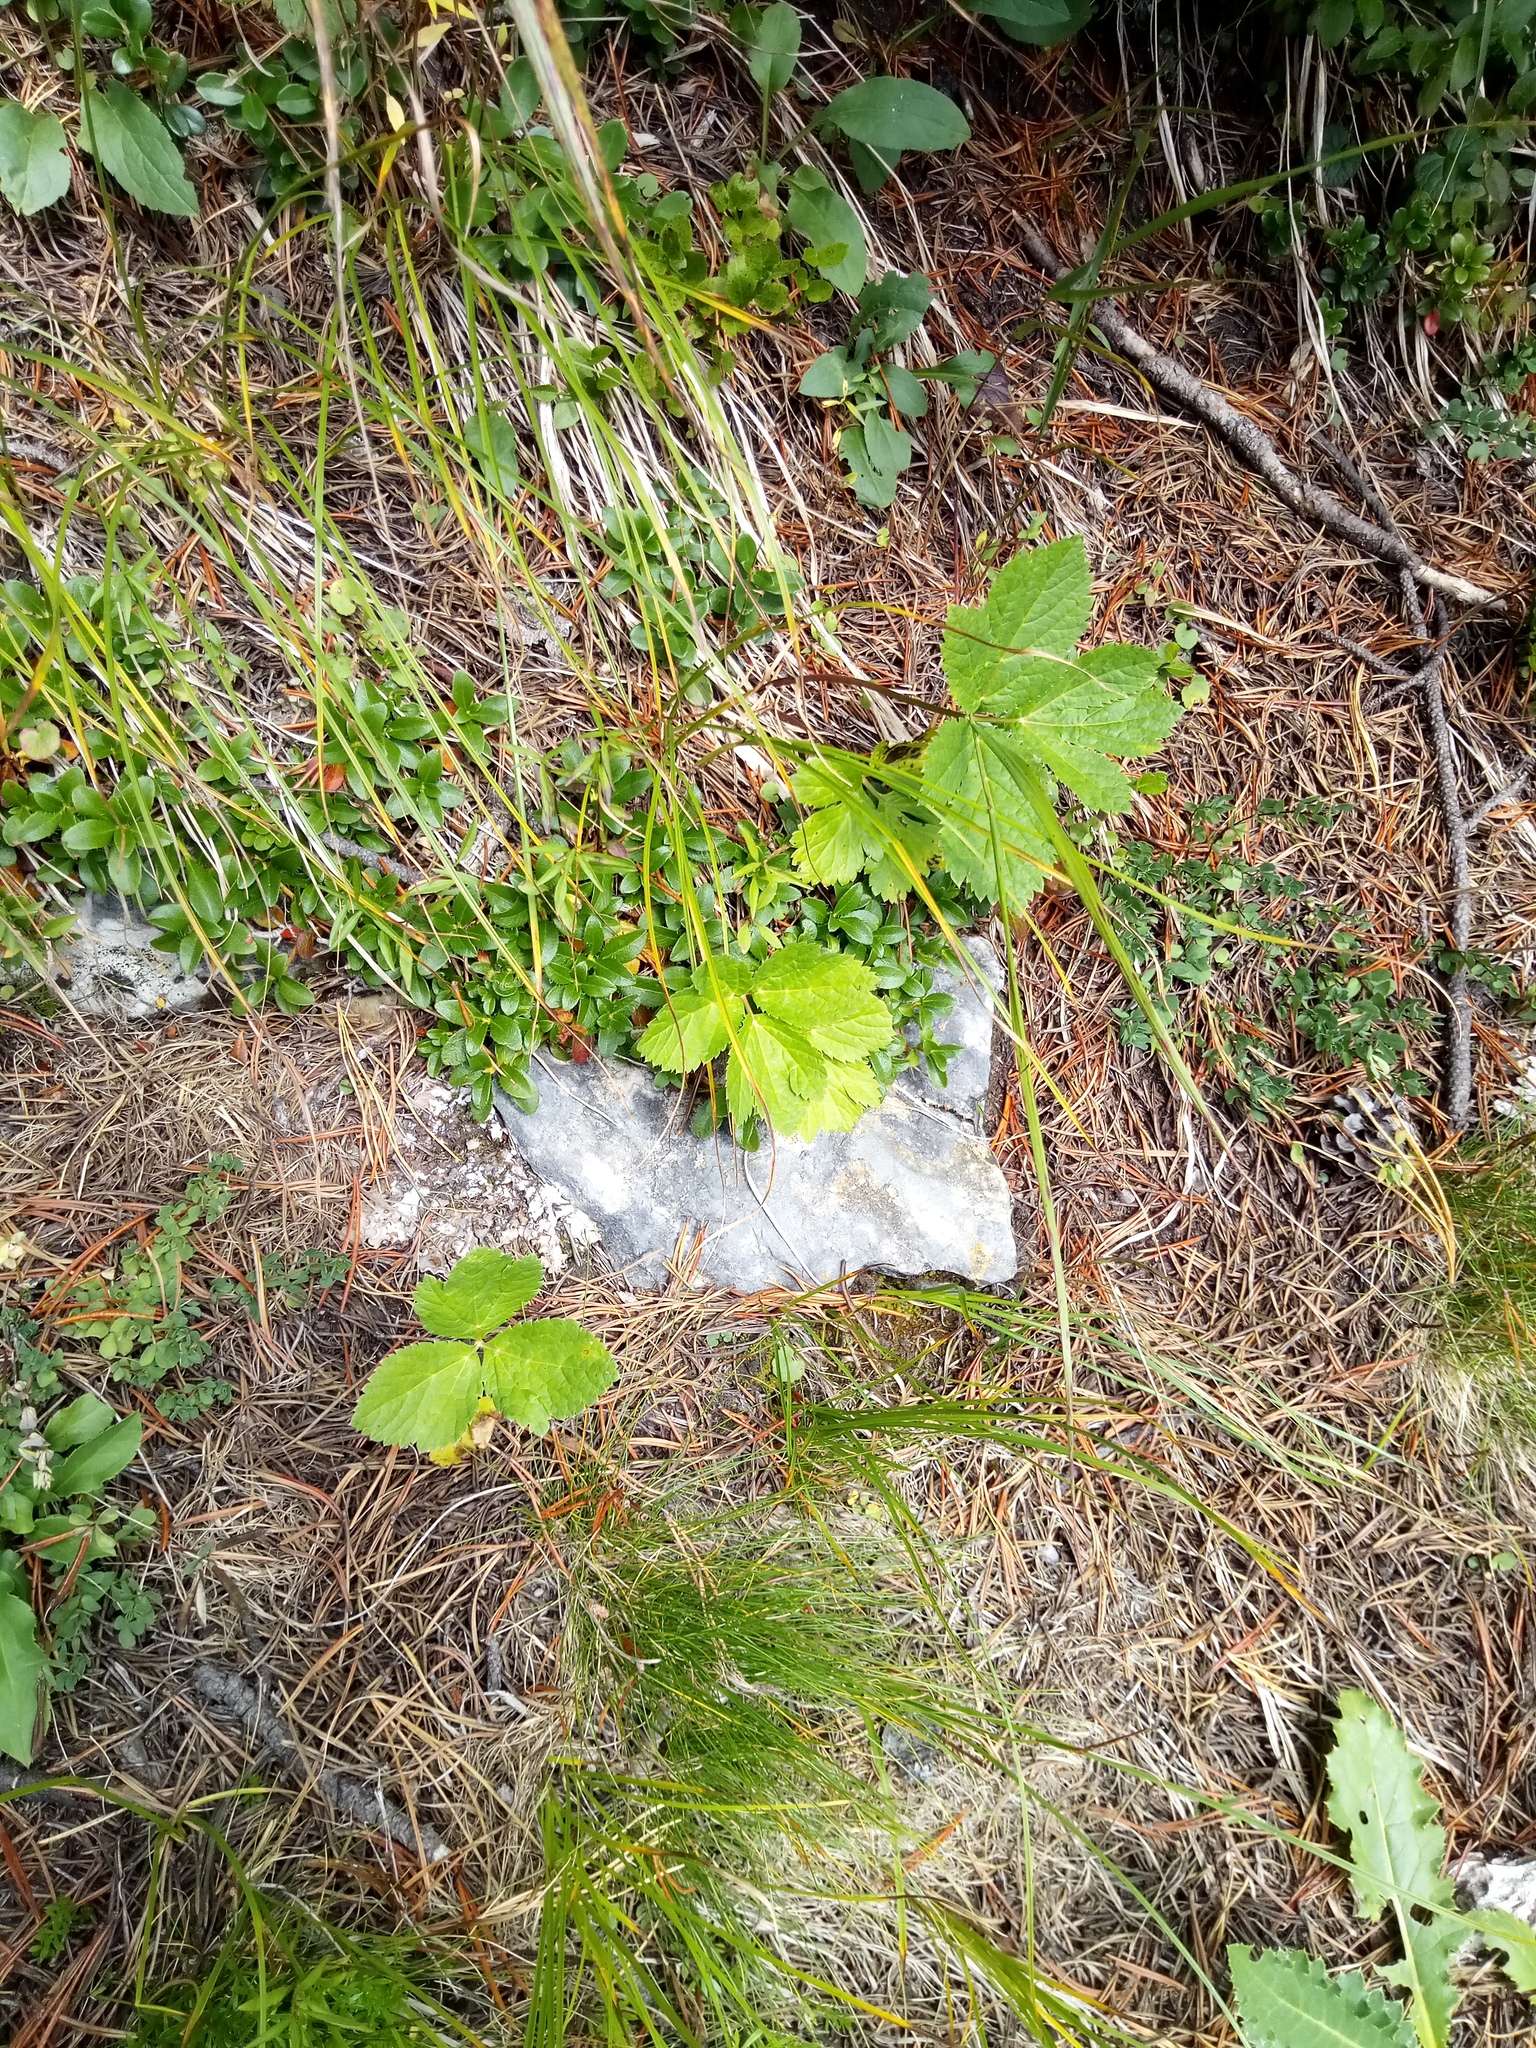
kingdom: Plantae
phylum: Tracheophyta
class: Magnoliopsida
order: Apiales
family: Apiaceae
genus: Imperatoria
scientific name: Imperatoria ostruthium
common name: Masterwort
